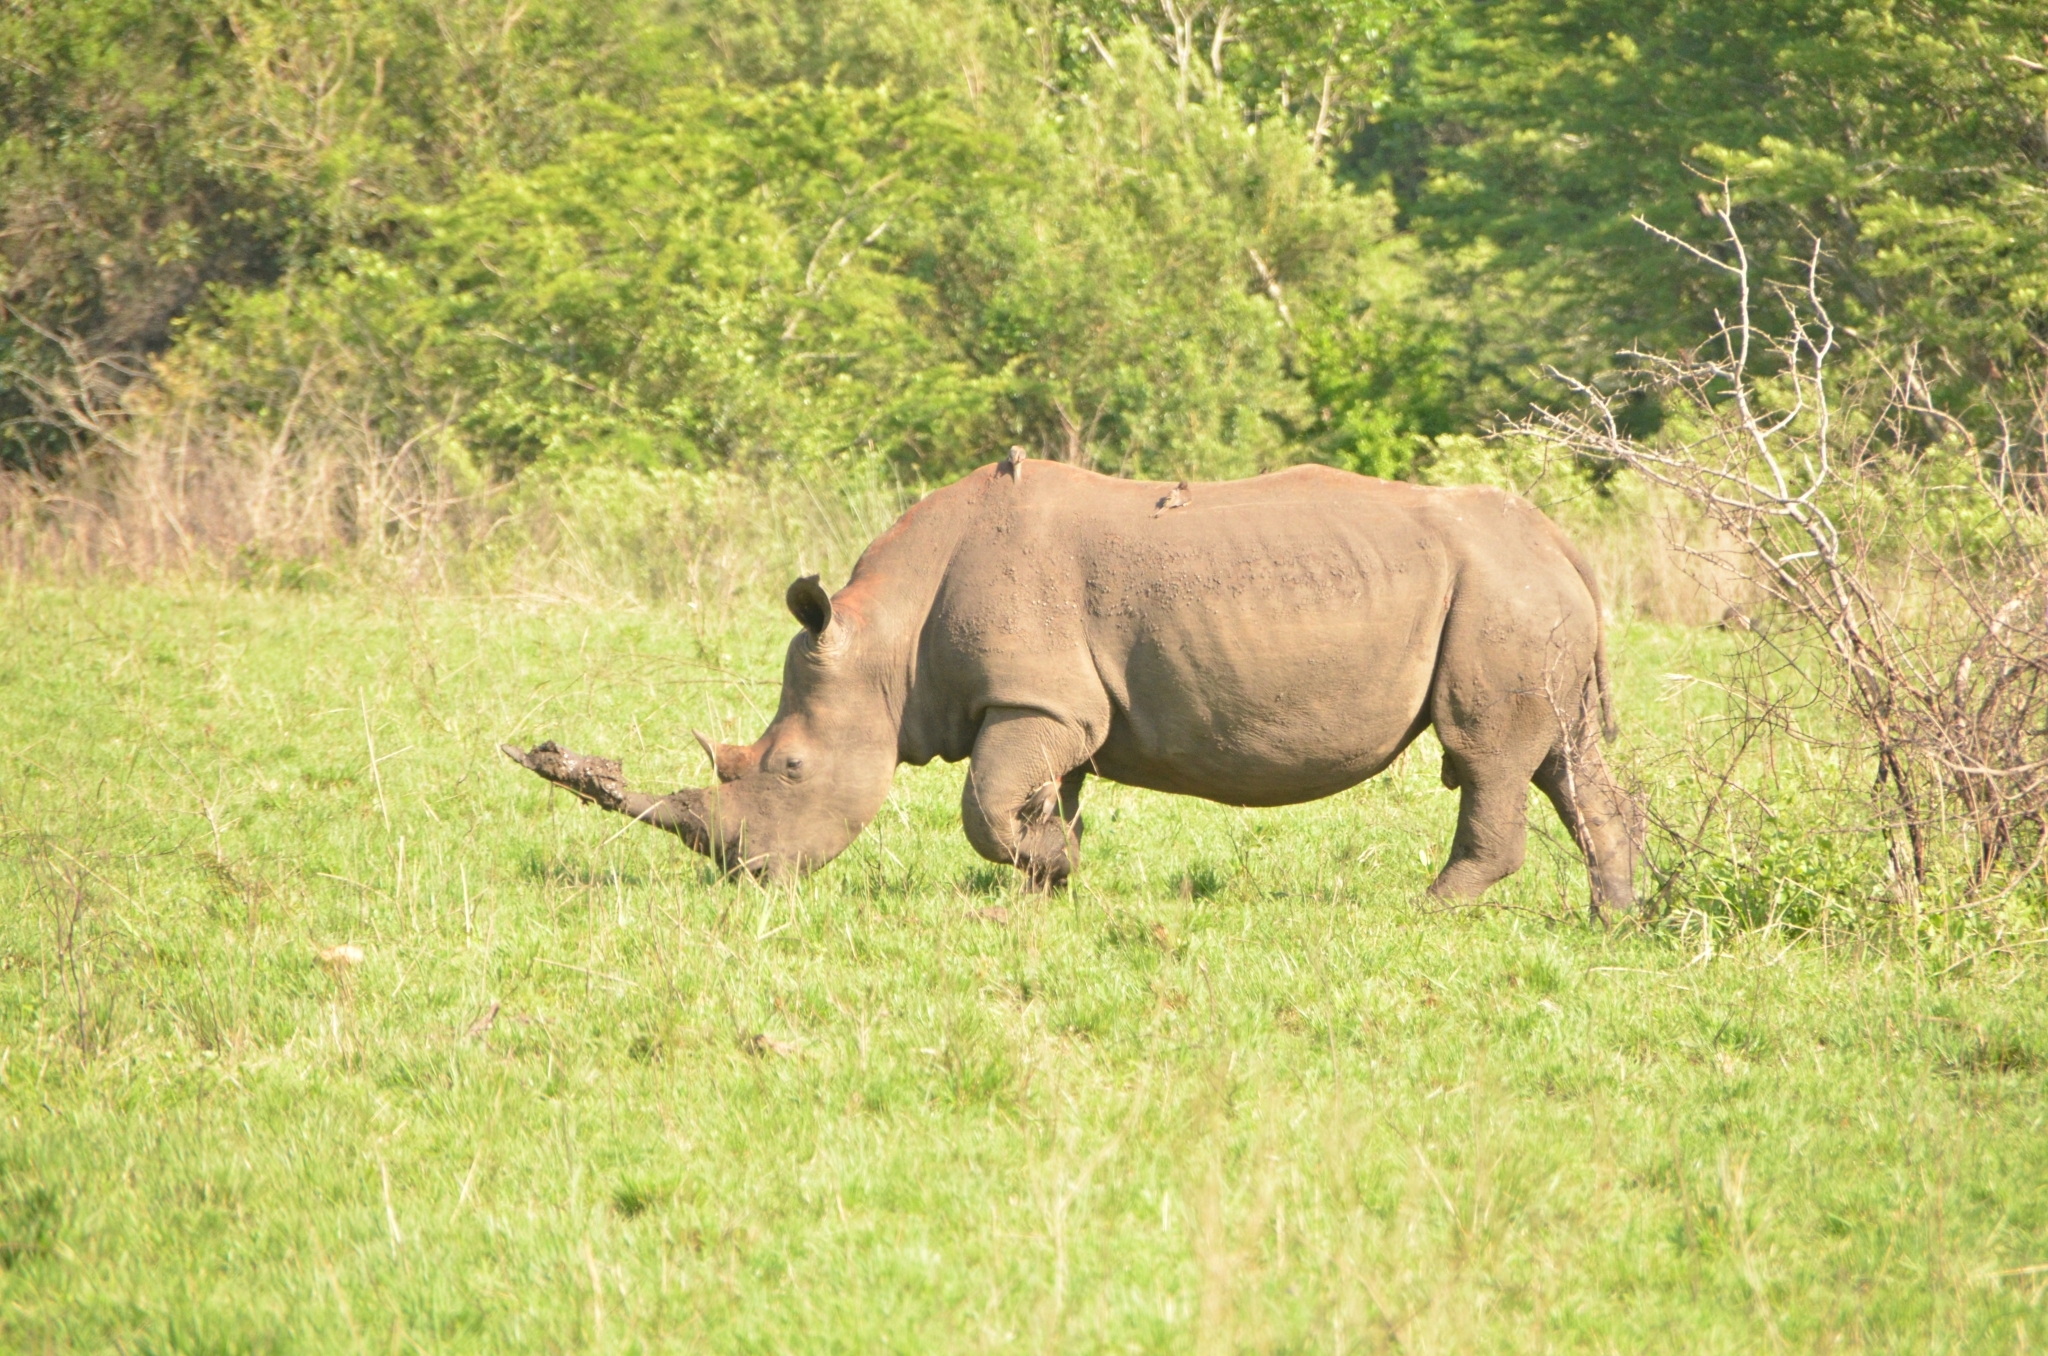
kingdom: Animalia
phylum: Chordata
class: Mammalia
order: Perissodactyla
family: Rhinocerotidae
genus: Ceratotherium
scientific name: Ceratotherium simum
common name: White rhinoceros
